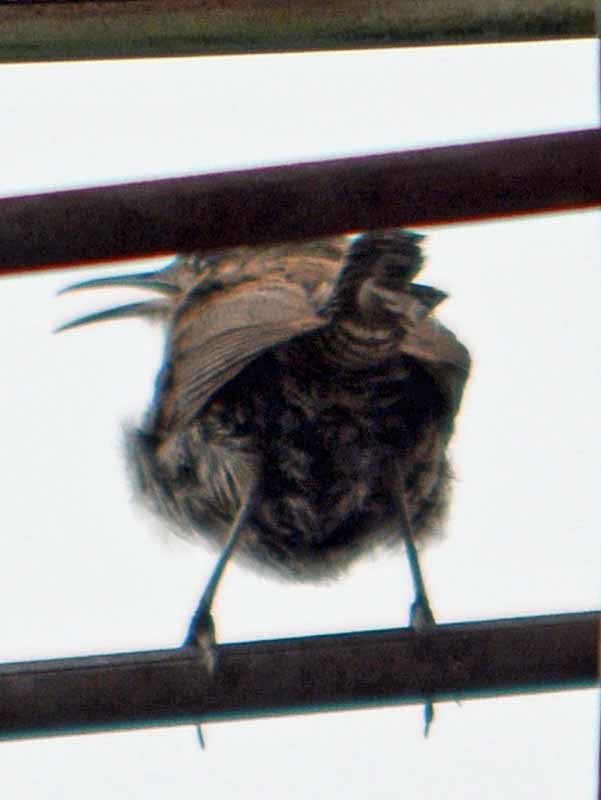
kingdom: Animalia
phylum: Chordata
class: Aves
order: Passeriformes
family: Troglodytidae
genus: Thryomanes
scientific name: Thryomanes bewickii
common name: Bewick's wren
